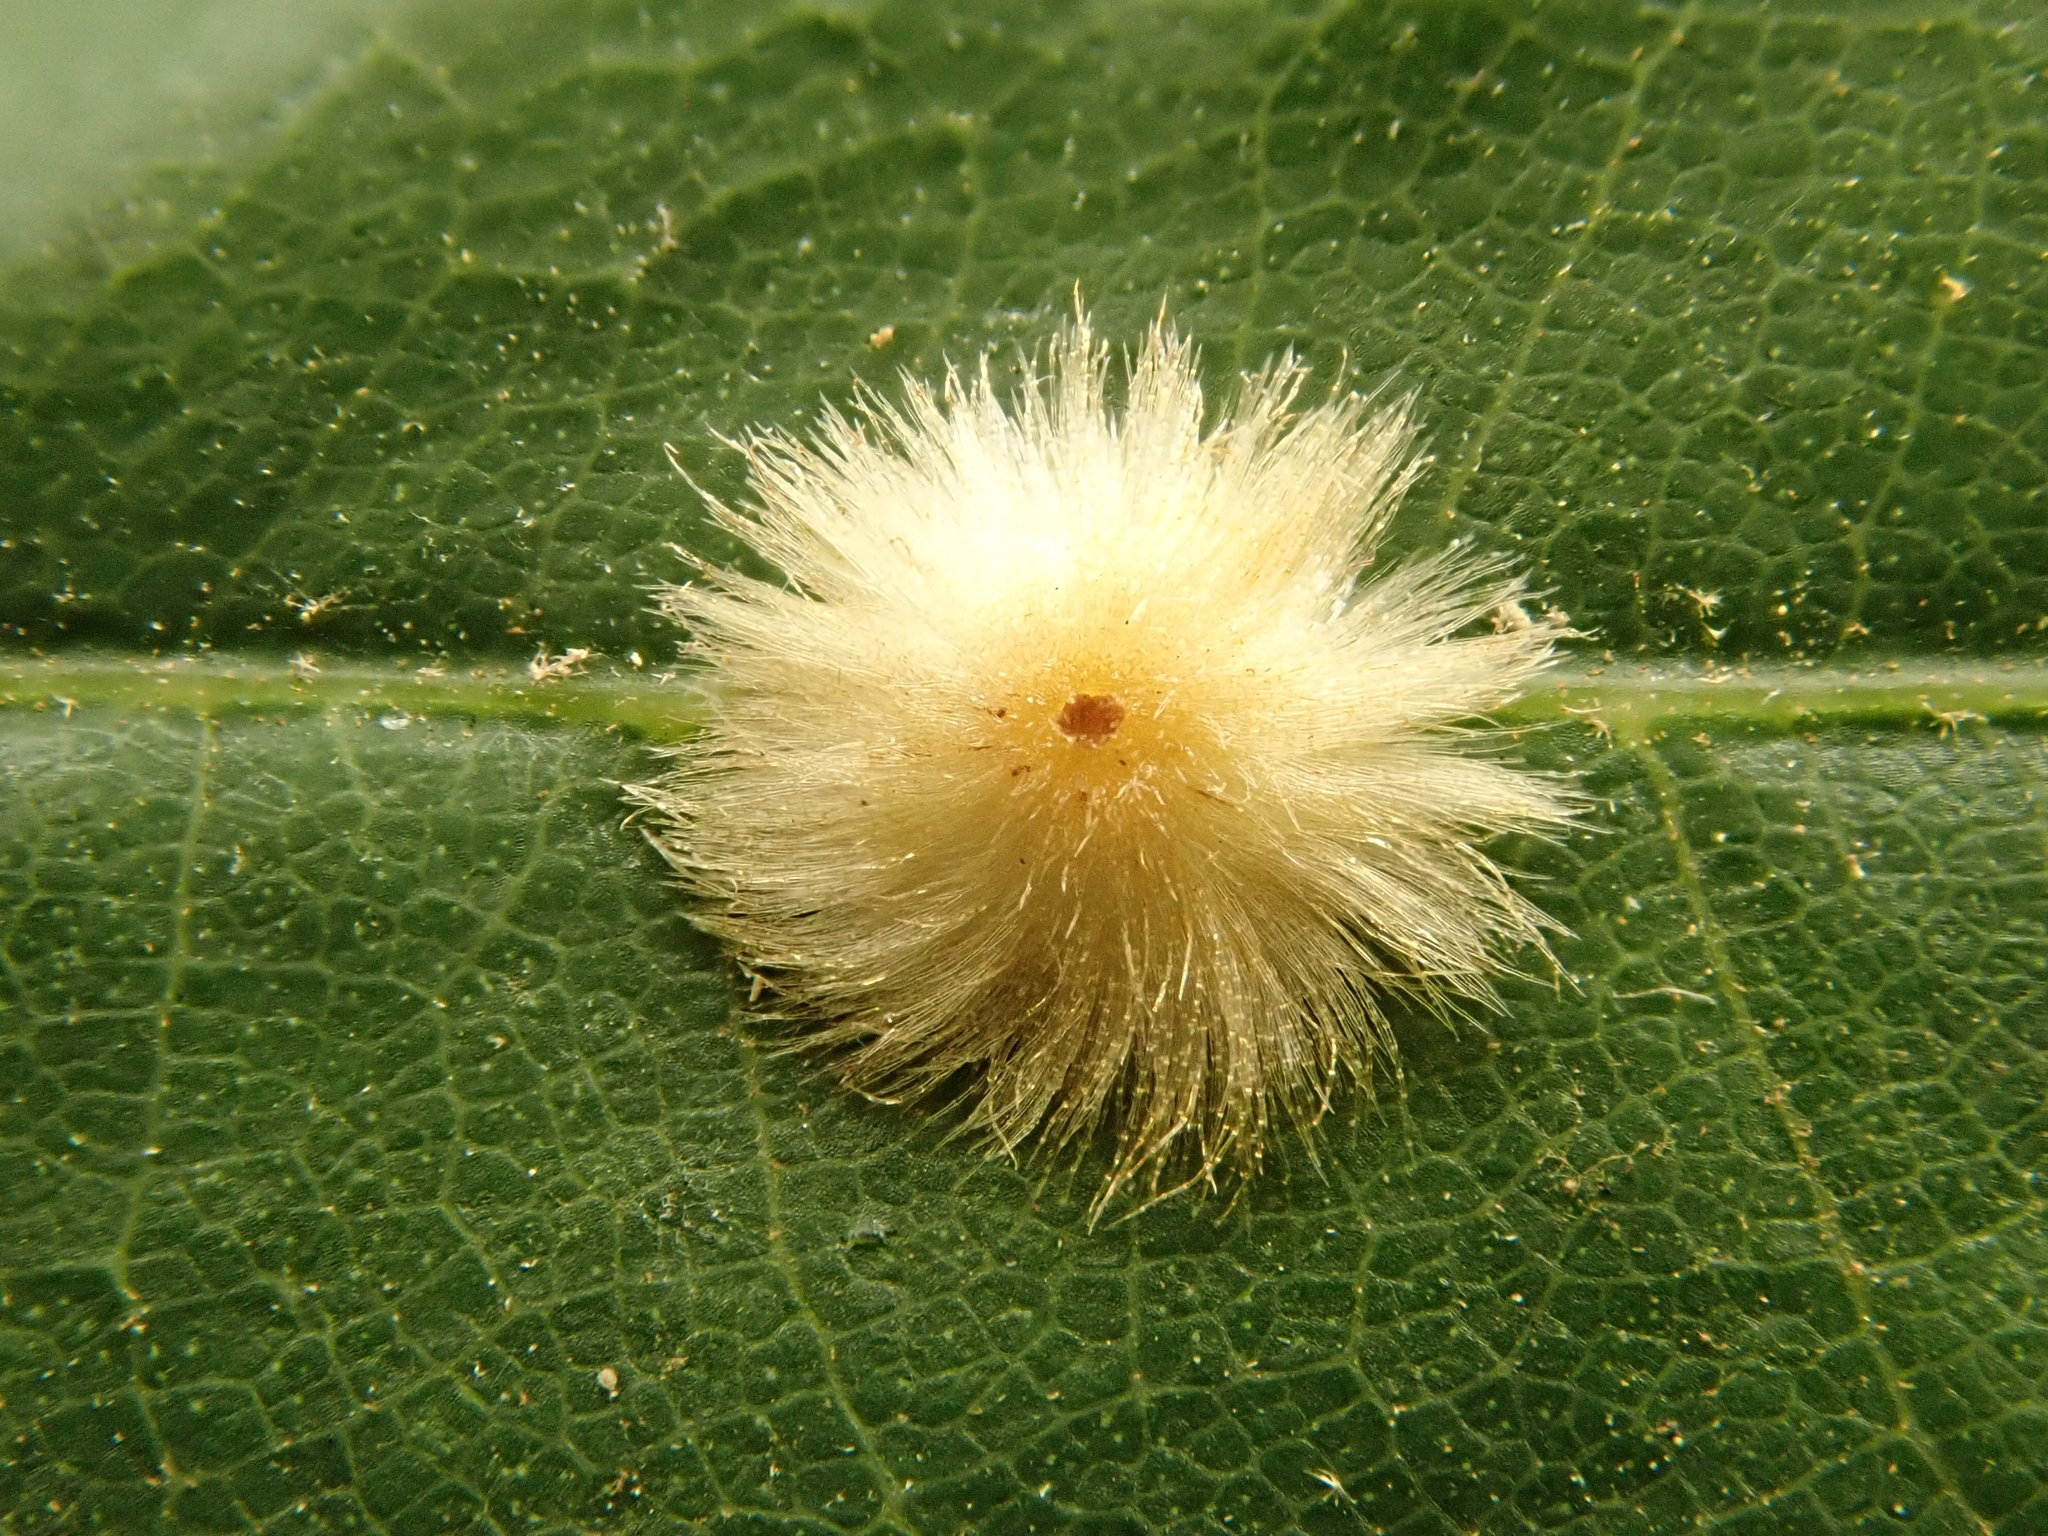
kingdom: Animalia
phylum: Arthropoda
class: Insecta
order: Hymenoptera
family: Cynipidae
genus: Callirhytis
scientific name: Callirhytis
